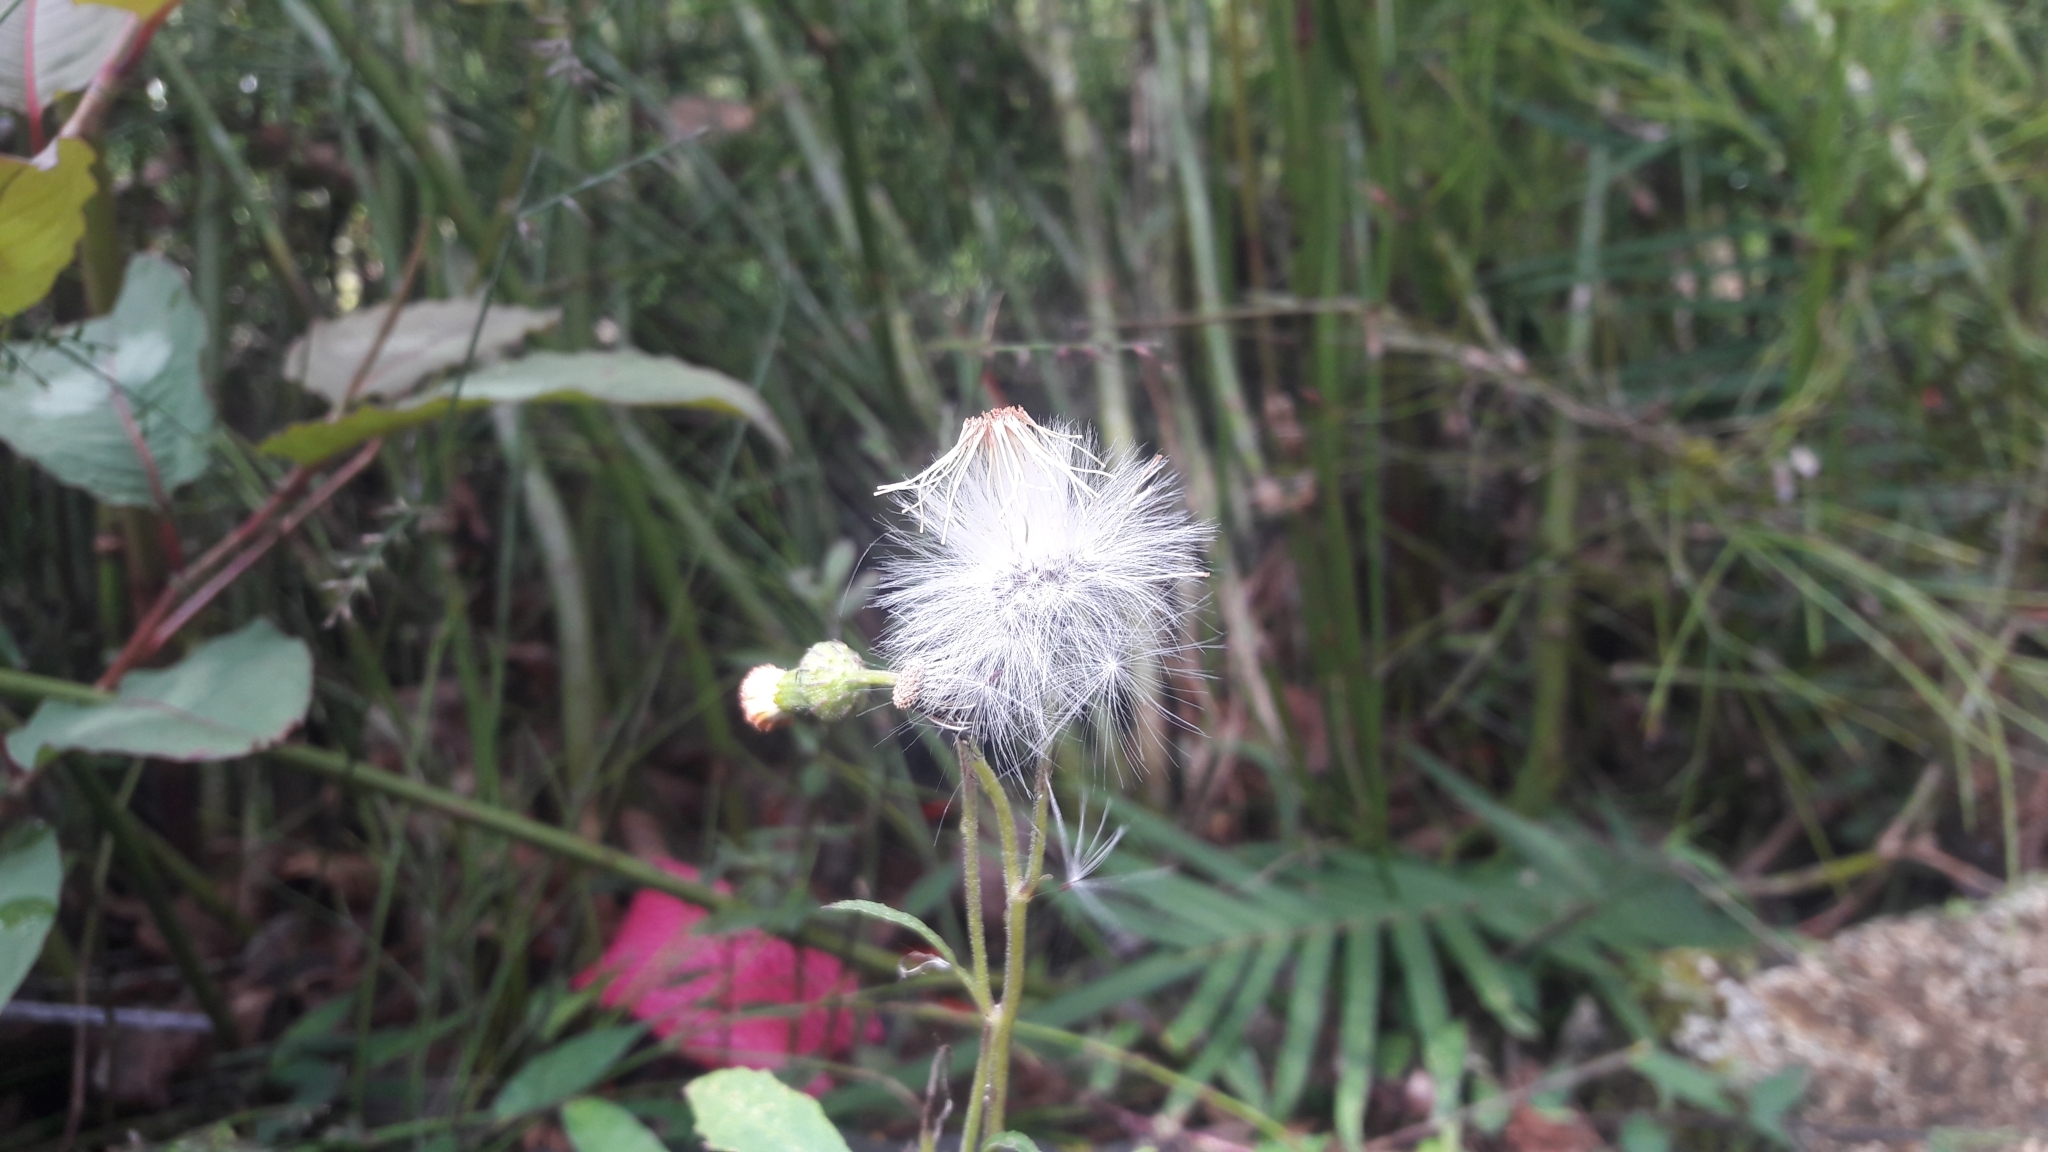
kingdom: Plantae
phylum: Tracheophyta
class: Magnoliopsida
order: Asterales
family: Asteraceae
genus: Crassocephalum
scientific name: Crassocephalum crepidioides
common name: Redflower ragleaf
